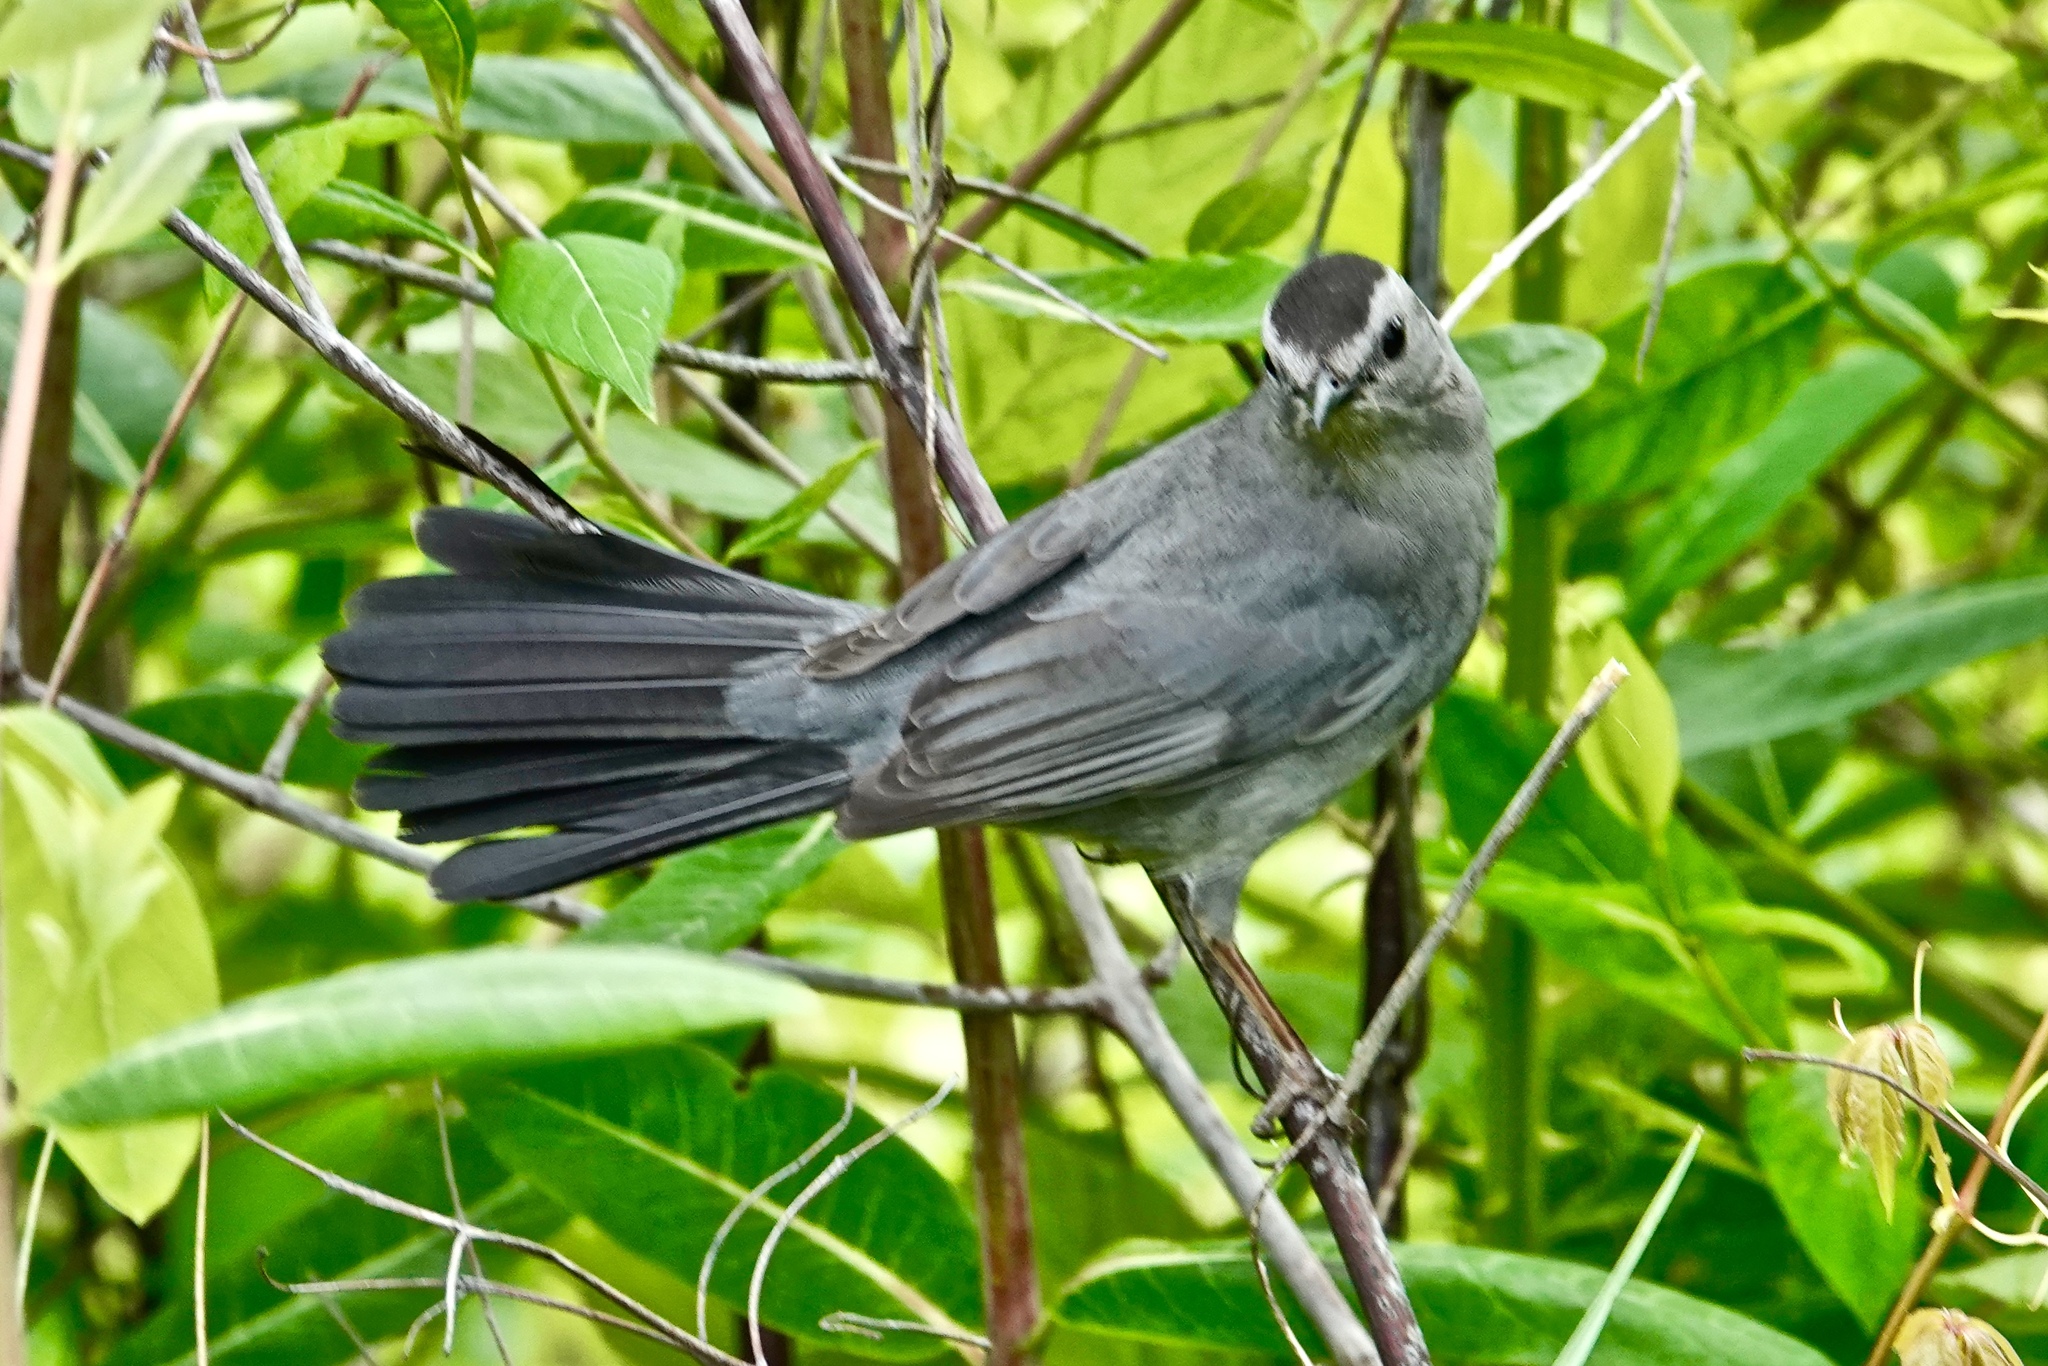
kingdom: Animalia
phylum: Chordata
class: Aves
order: Passeriformes
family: Mimidae
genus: Dumetella
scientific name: Dumetella carolinensis
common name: Gray catbird
